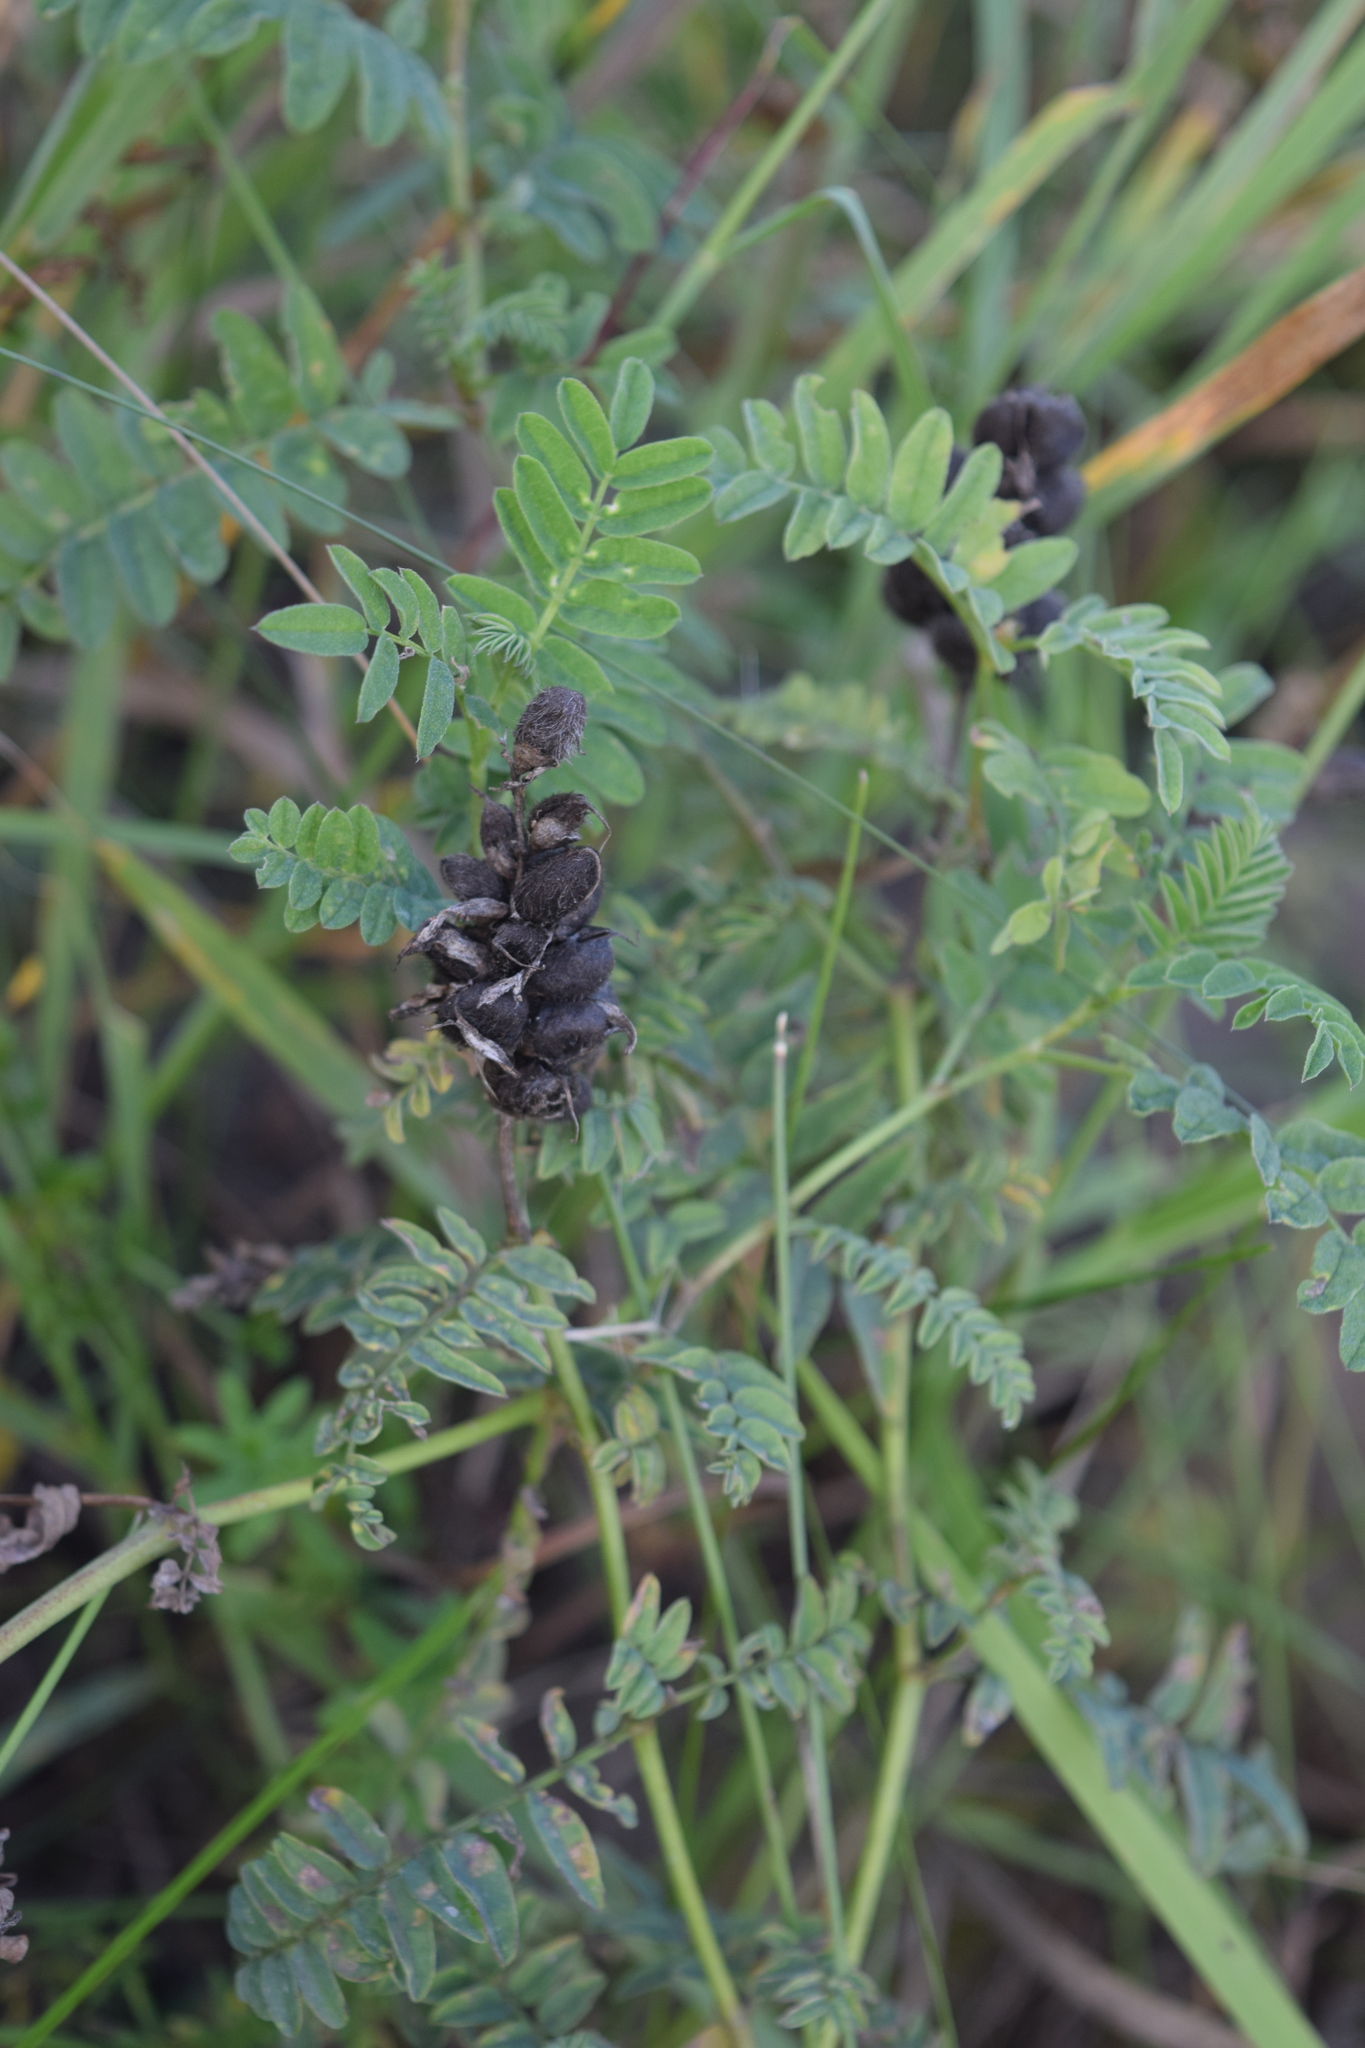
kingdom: Plantae
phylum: Tracheophyta
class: Magnoliopsida
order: Fabales
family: Fabaceae
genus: Astragalus
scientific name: Astragalus cicer
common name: Chick-pea milk-vetch
